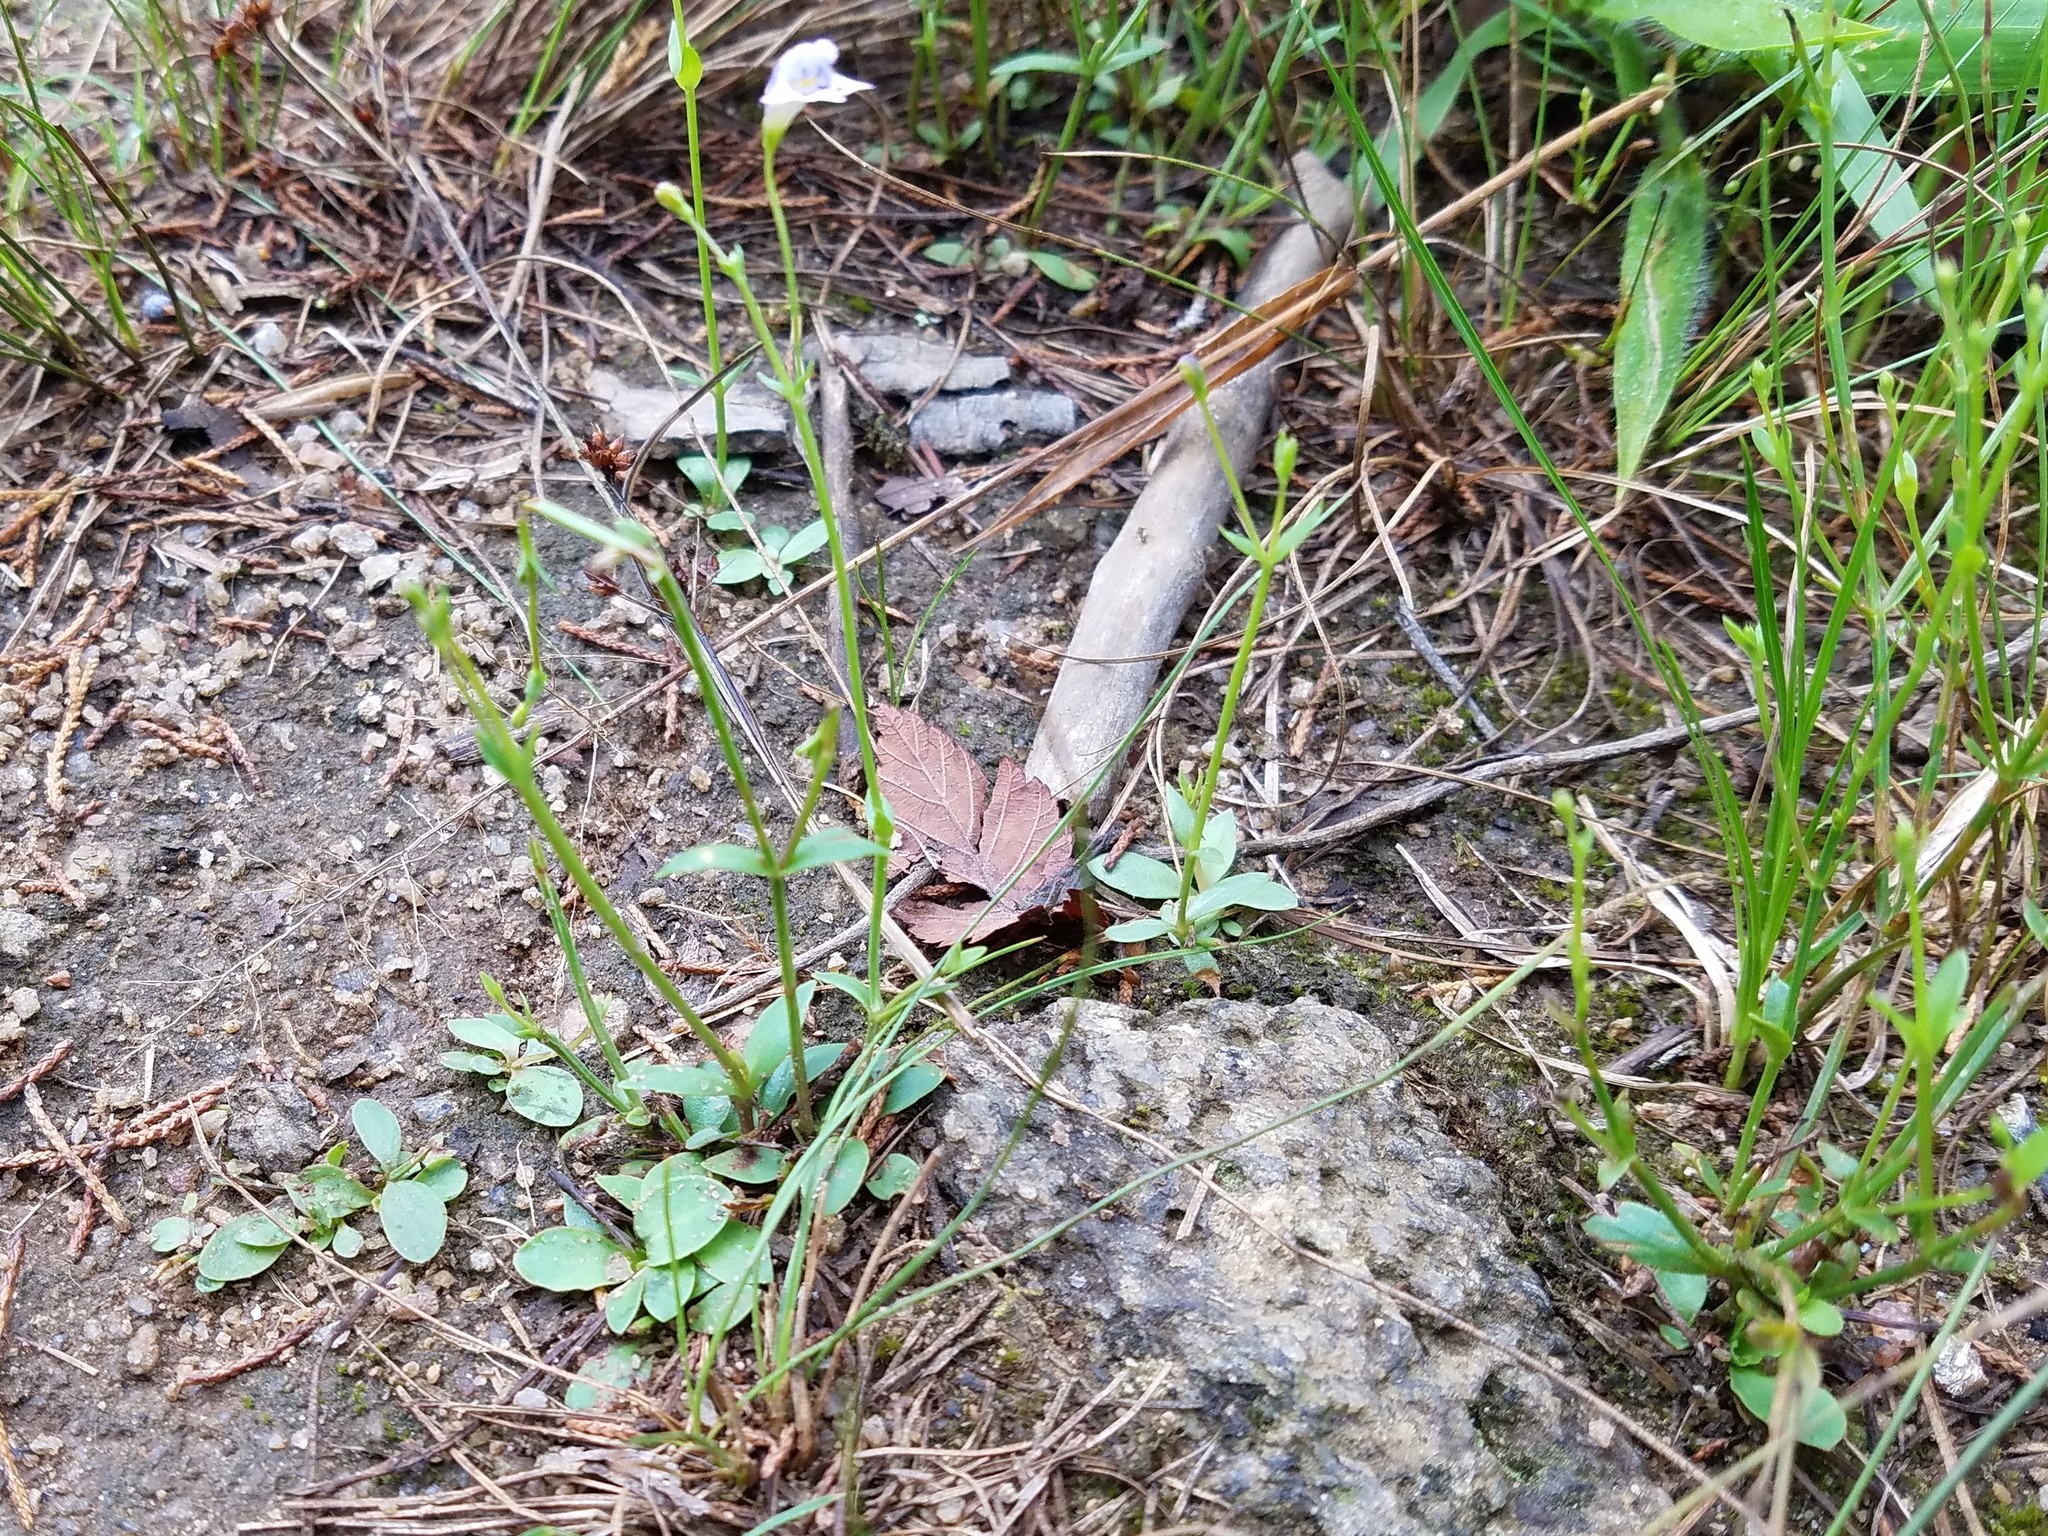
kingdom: Plantae
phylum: Tracheophyta
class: Magnoliopsida
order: Lamiales
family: Linderniaceae
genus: Lindernia
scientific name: Lindernia monticola
